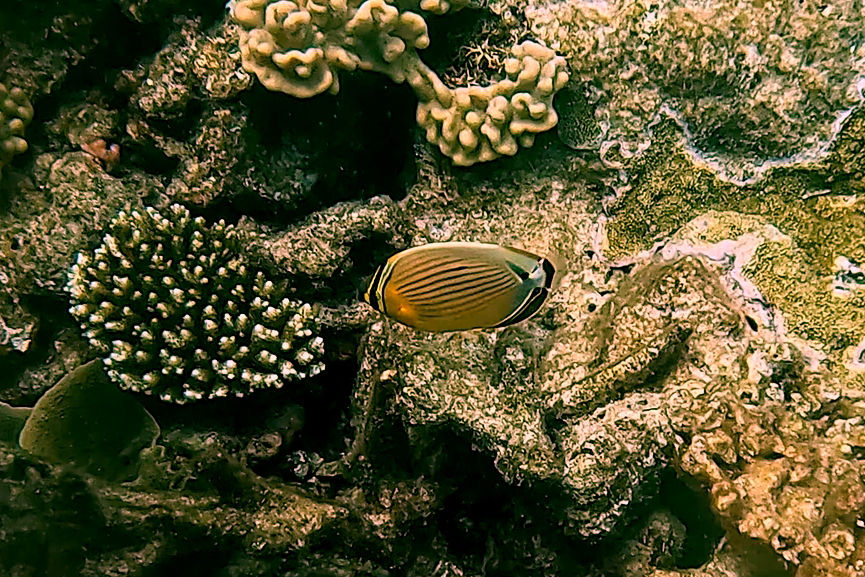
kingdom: Animalia
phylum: Chordata
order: Perciformes
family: Chaetodontidae
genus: Chaetodon
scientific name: Chaetodon lunulatus
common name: Redfin butterflyfish
